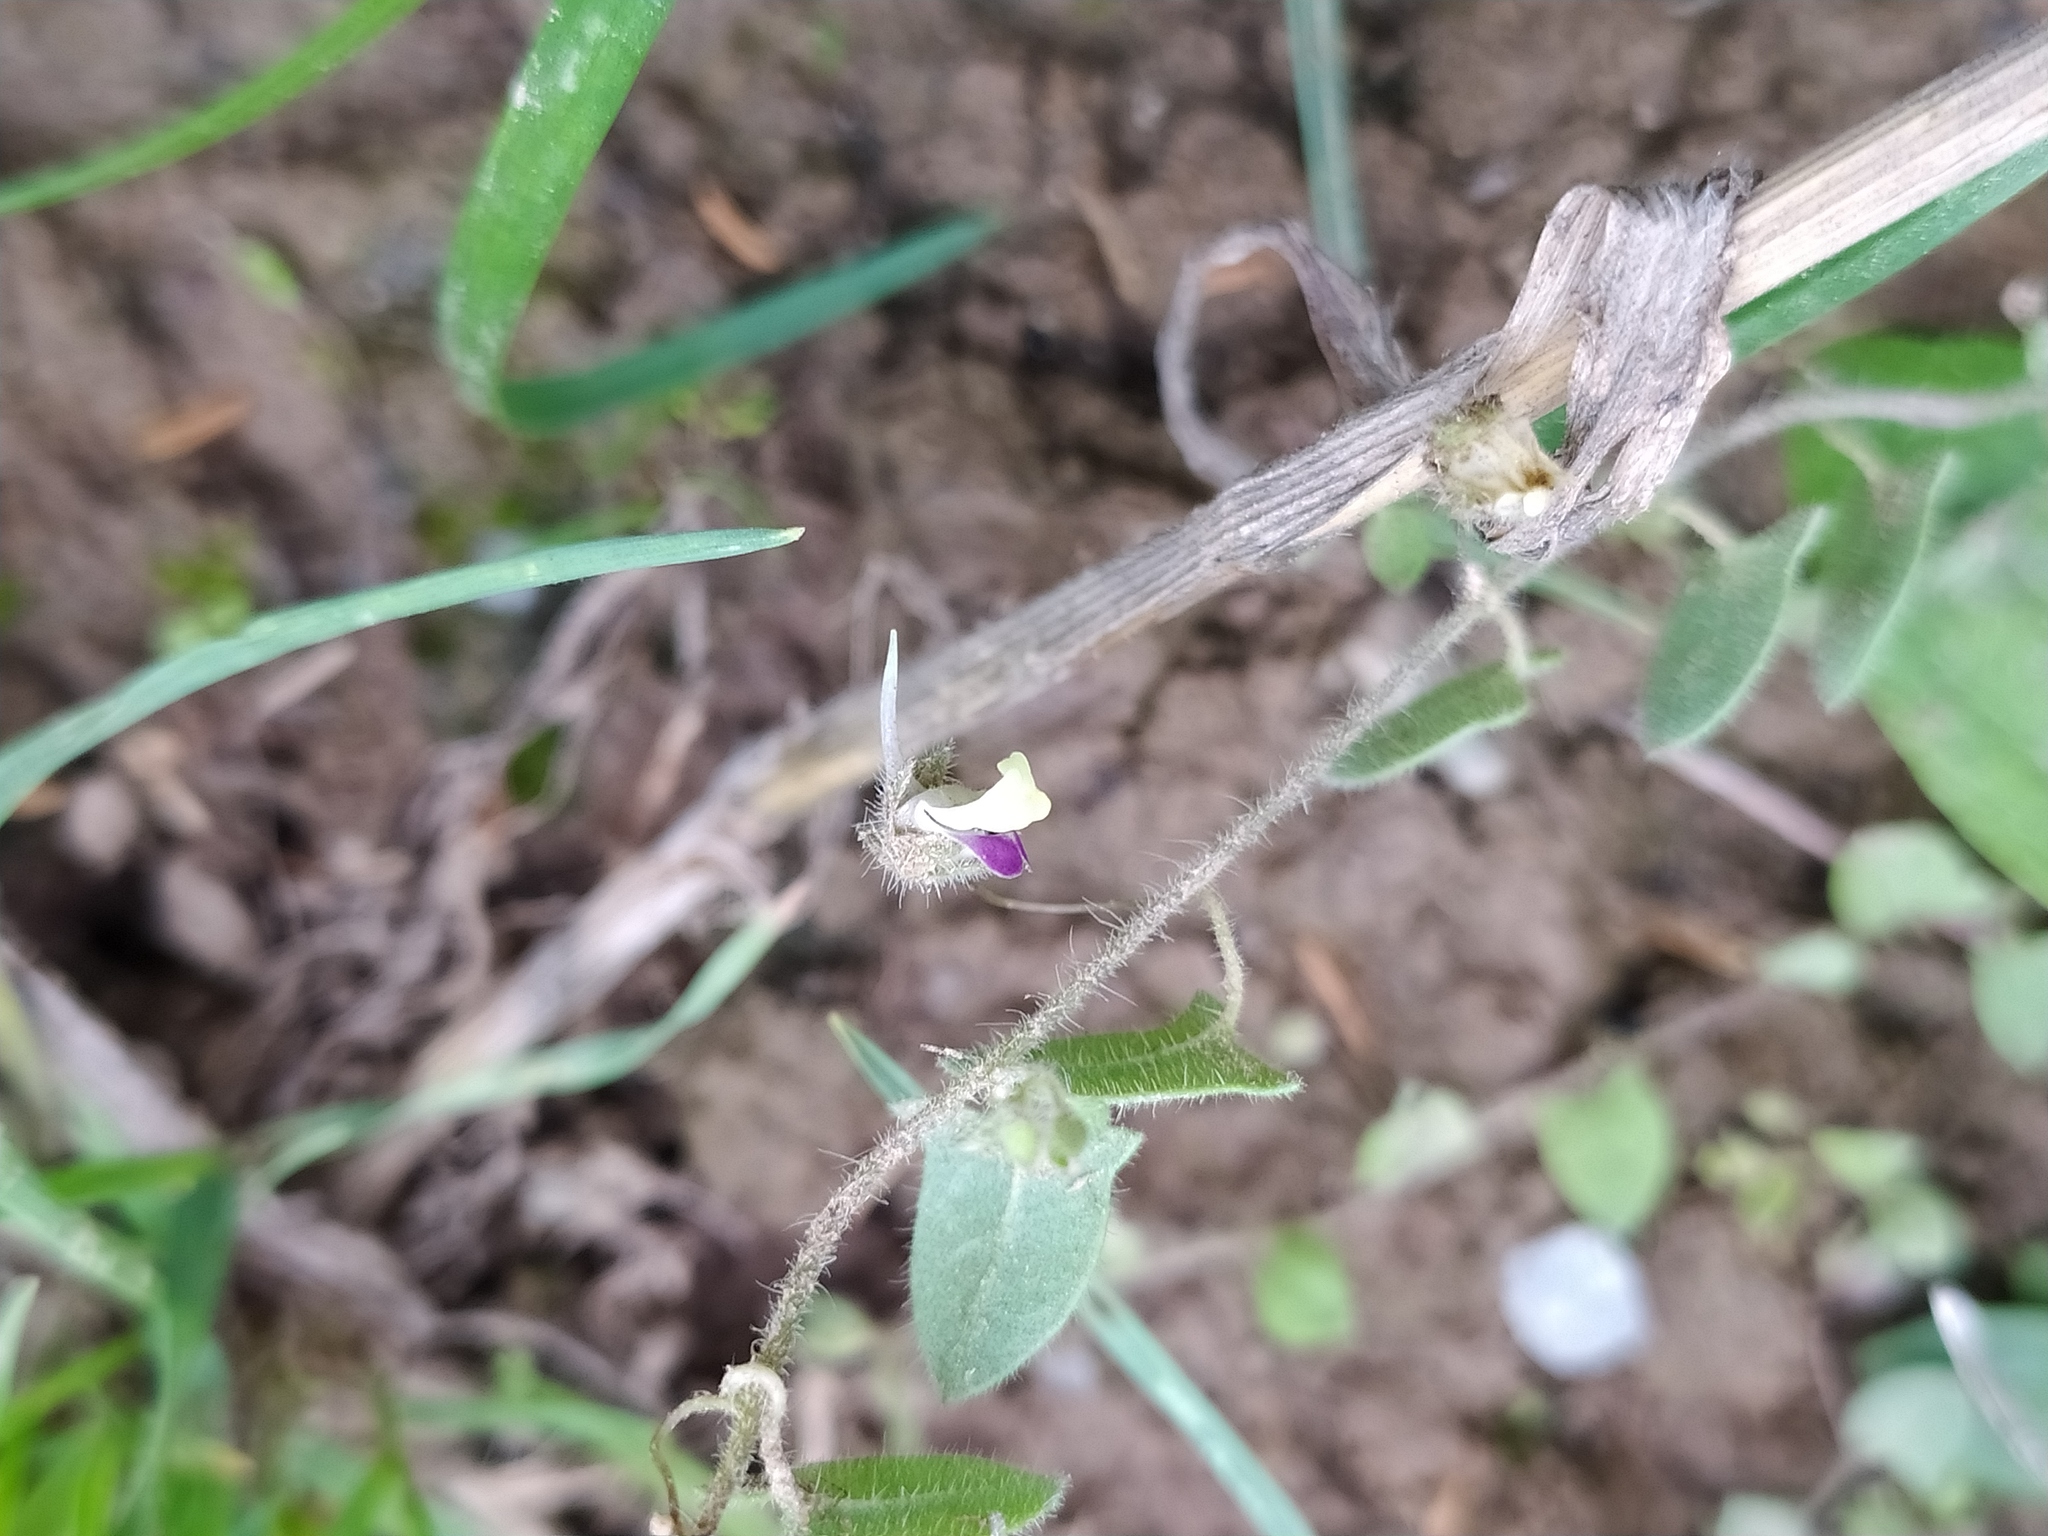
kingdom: Plantae
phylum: Tracheophyta
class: Magnoliopsida
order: Lamiales
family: Plantaginaceae
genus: Kickxia
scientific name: Kickxia elatine
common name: Sharp-leaved fluellen
